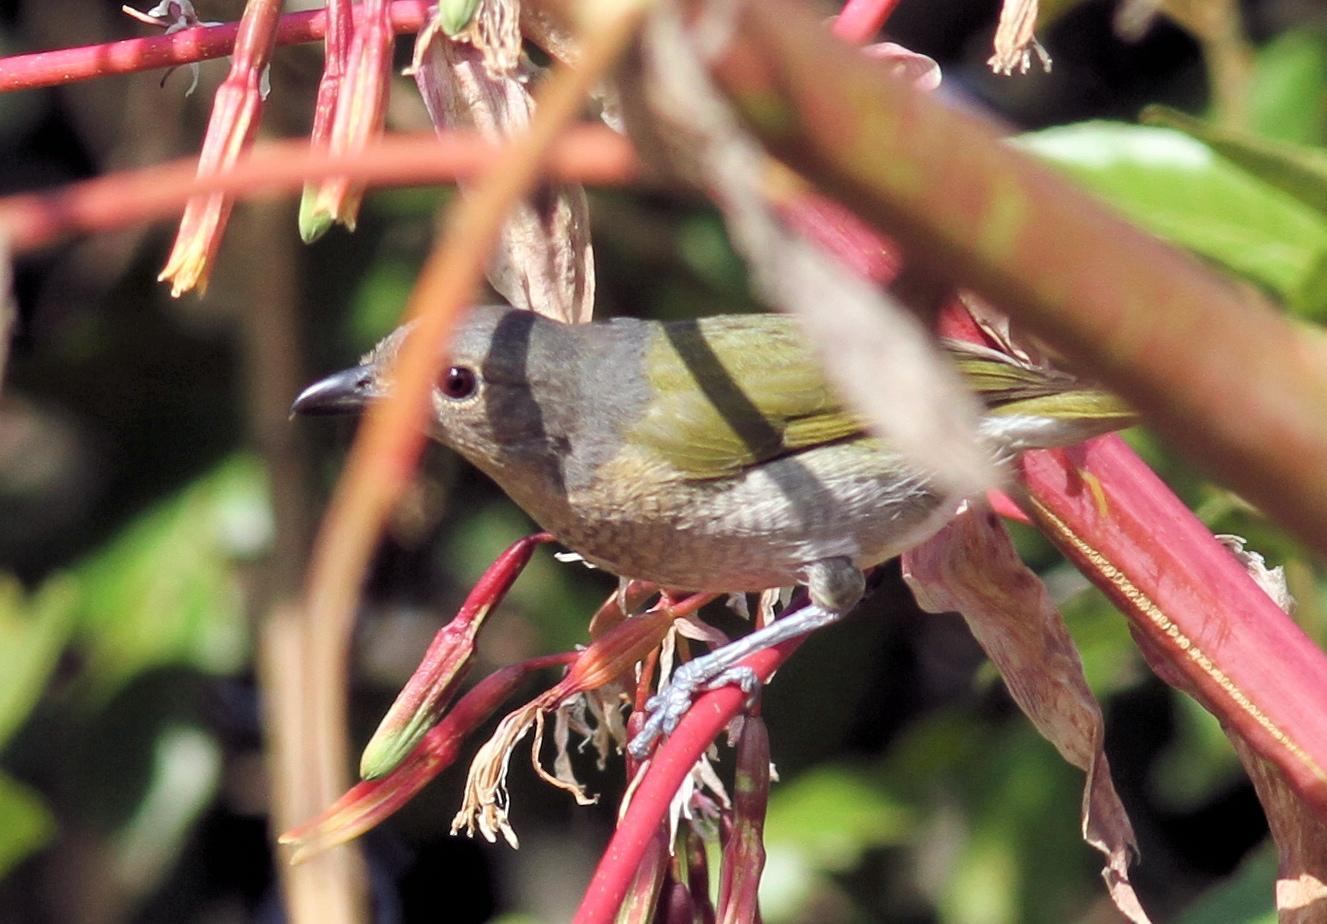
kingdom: Animalia
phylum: Chordata
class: Aves
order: Passeriformes
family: Malaconotidae
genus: Chlorophoneus
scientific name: Chlorophoneus olivaceus
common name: Olive bushshrike
